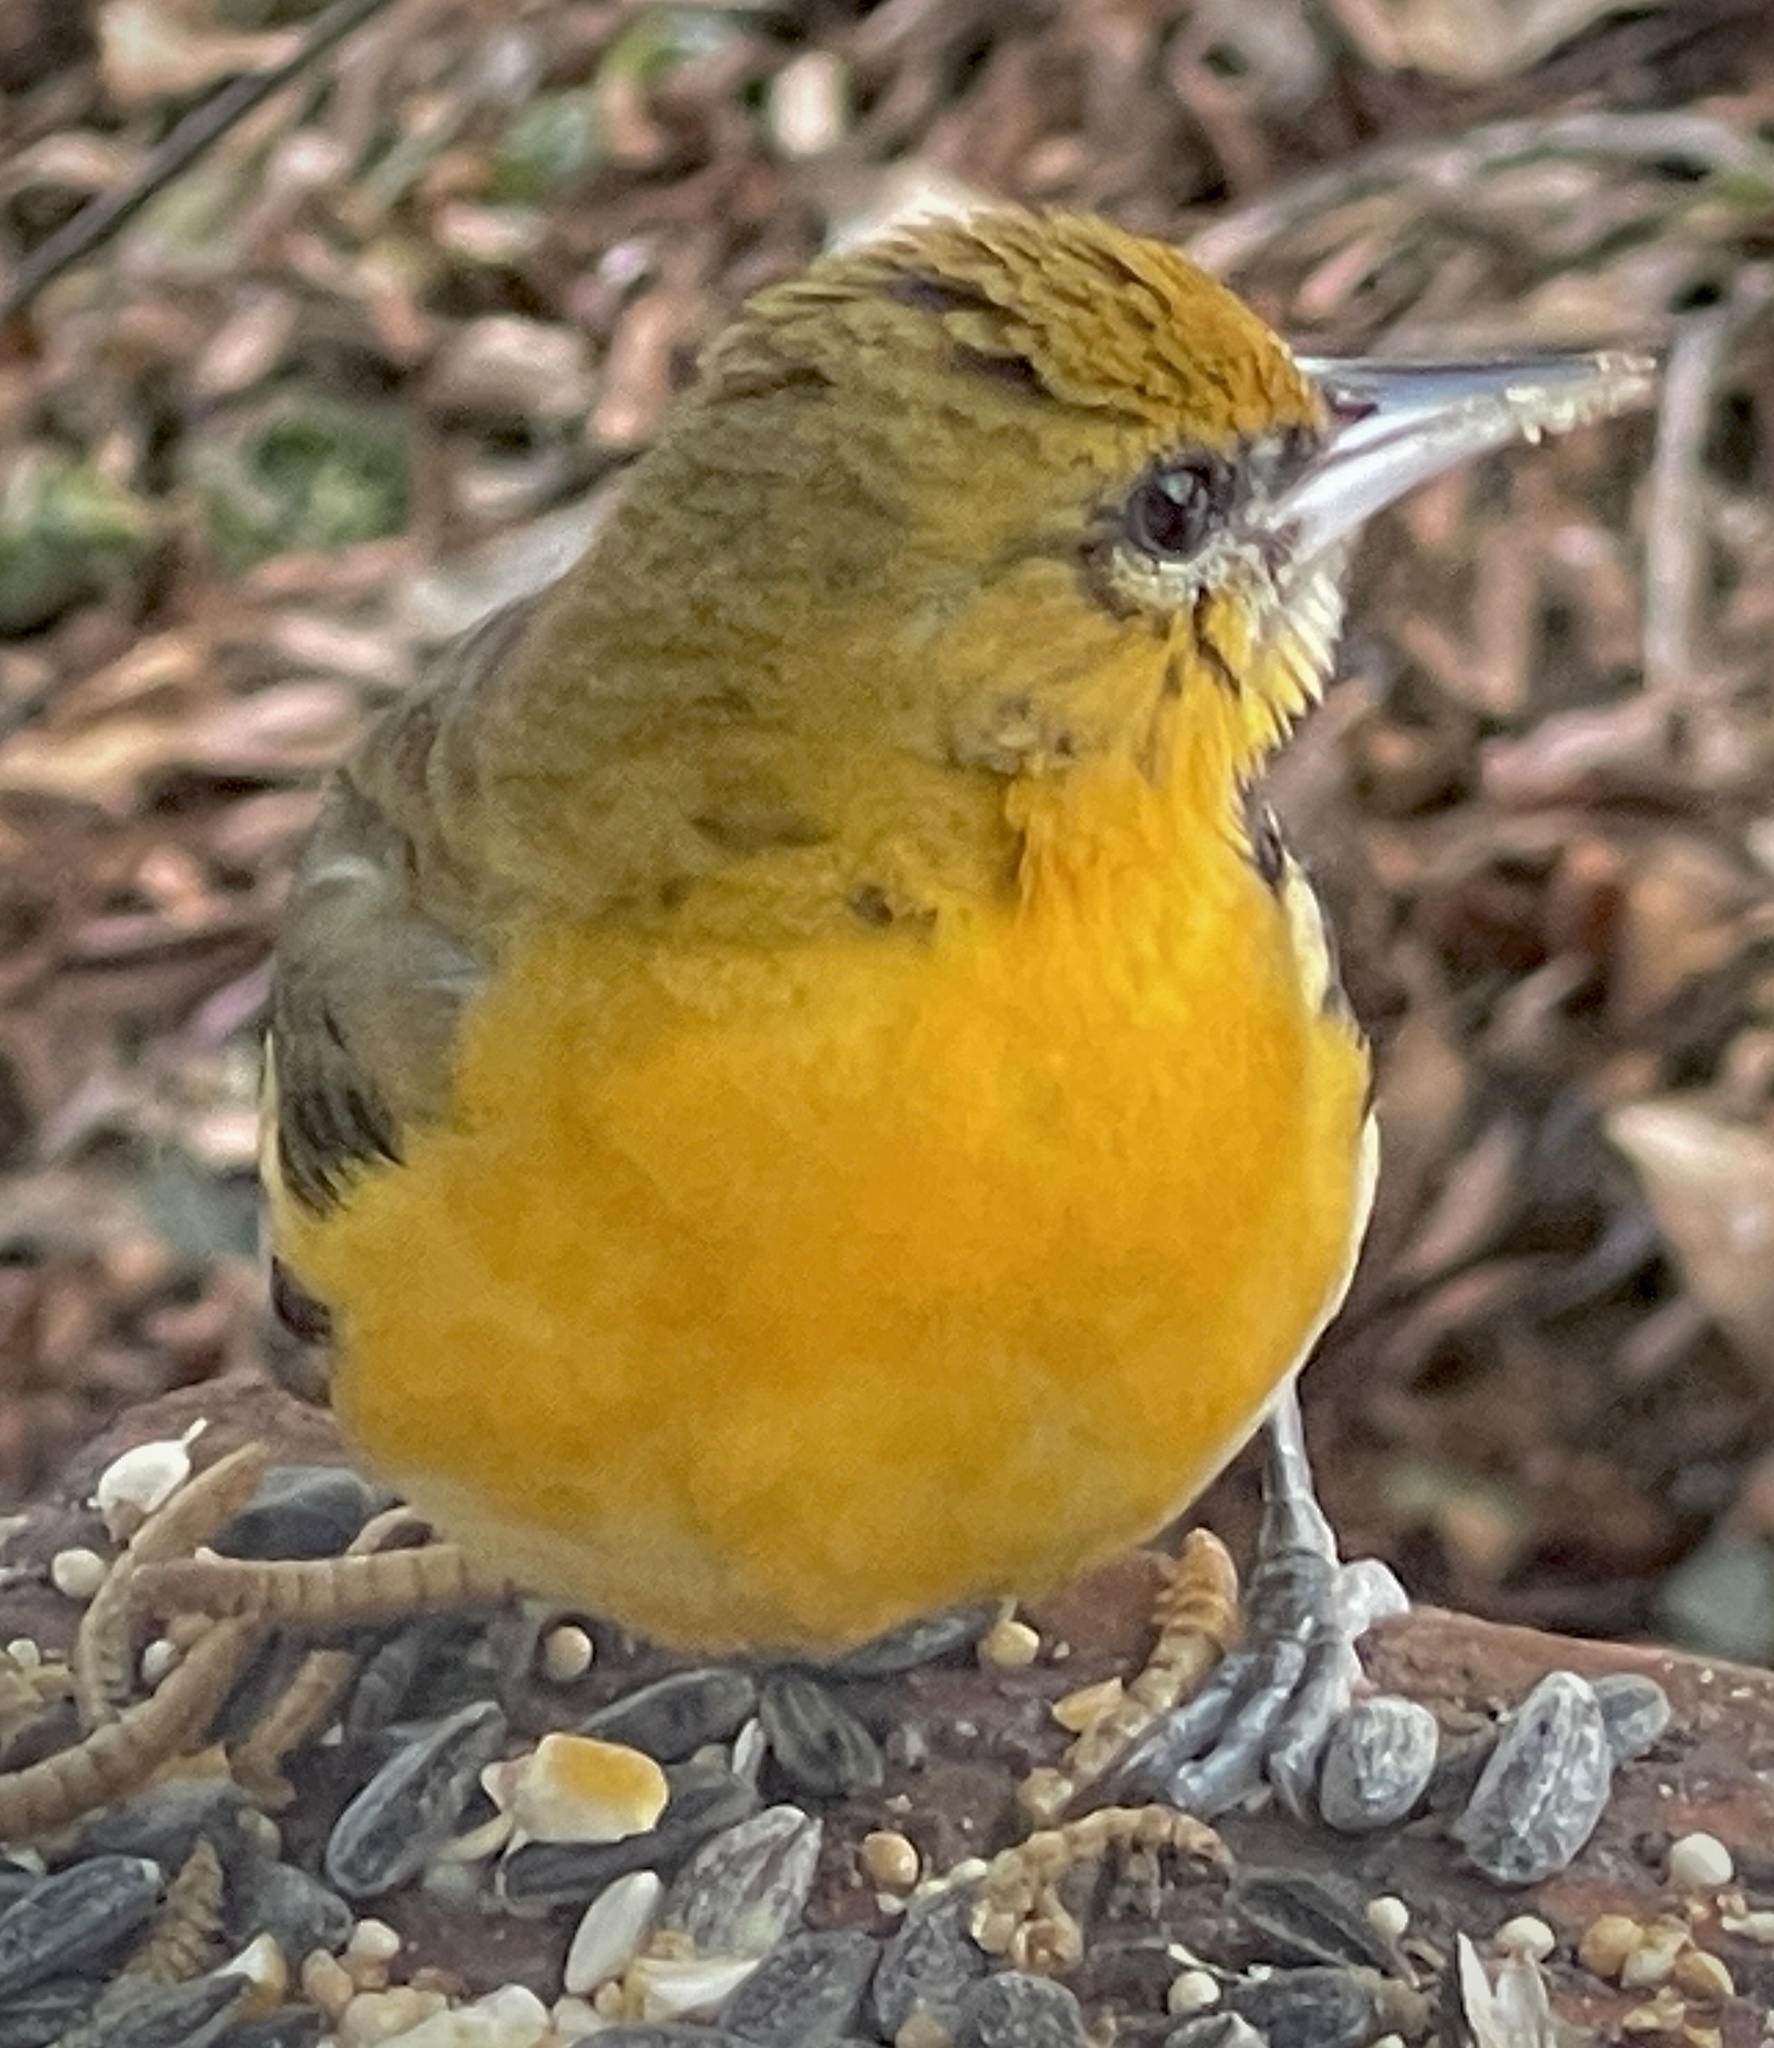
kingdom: Animalia
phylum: Chordata
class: Aves
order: Passeriformes
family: Icteridae
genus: Icterus
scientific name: Icterus galbula
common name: Baltimore oriole
